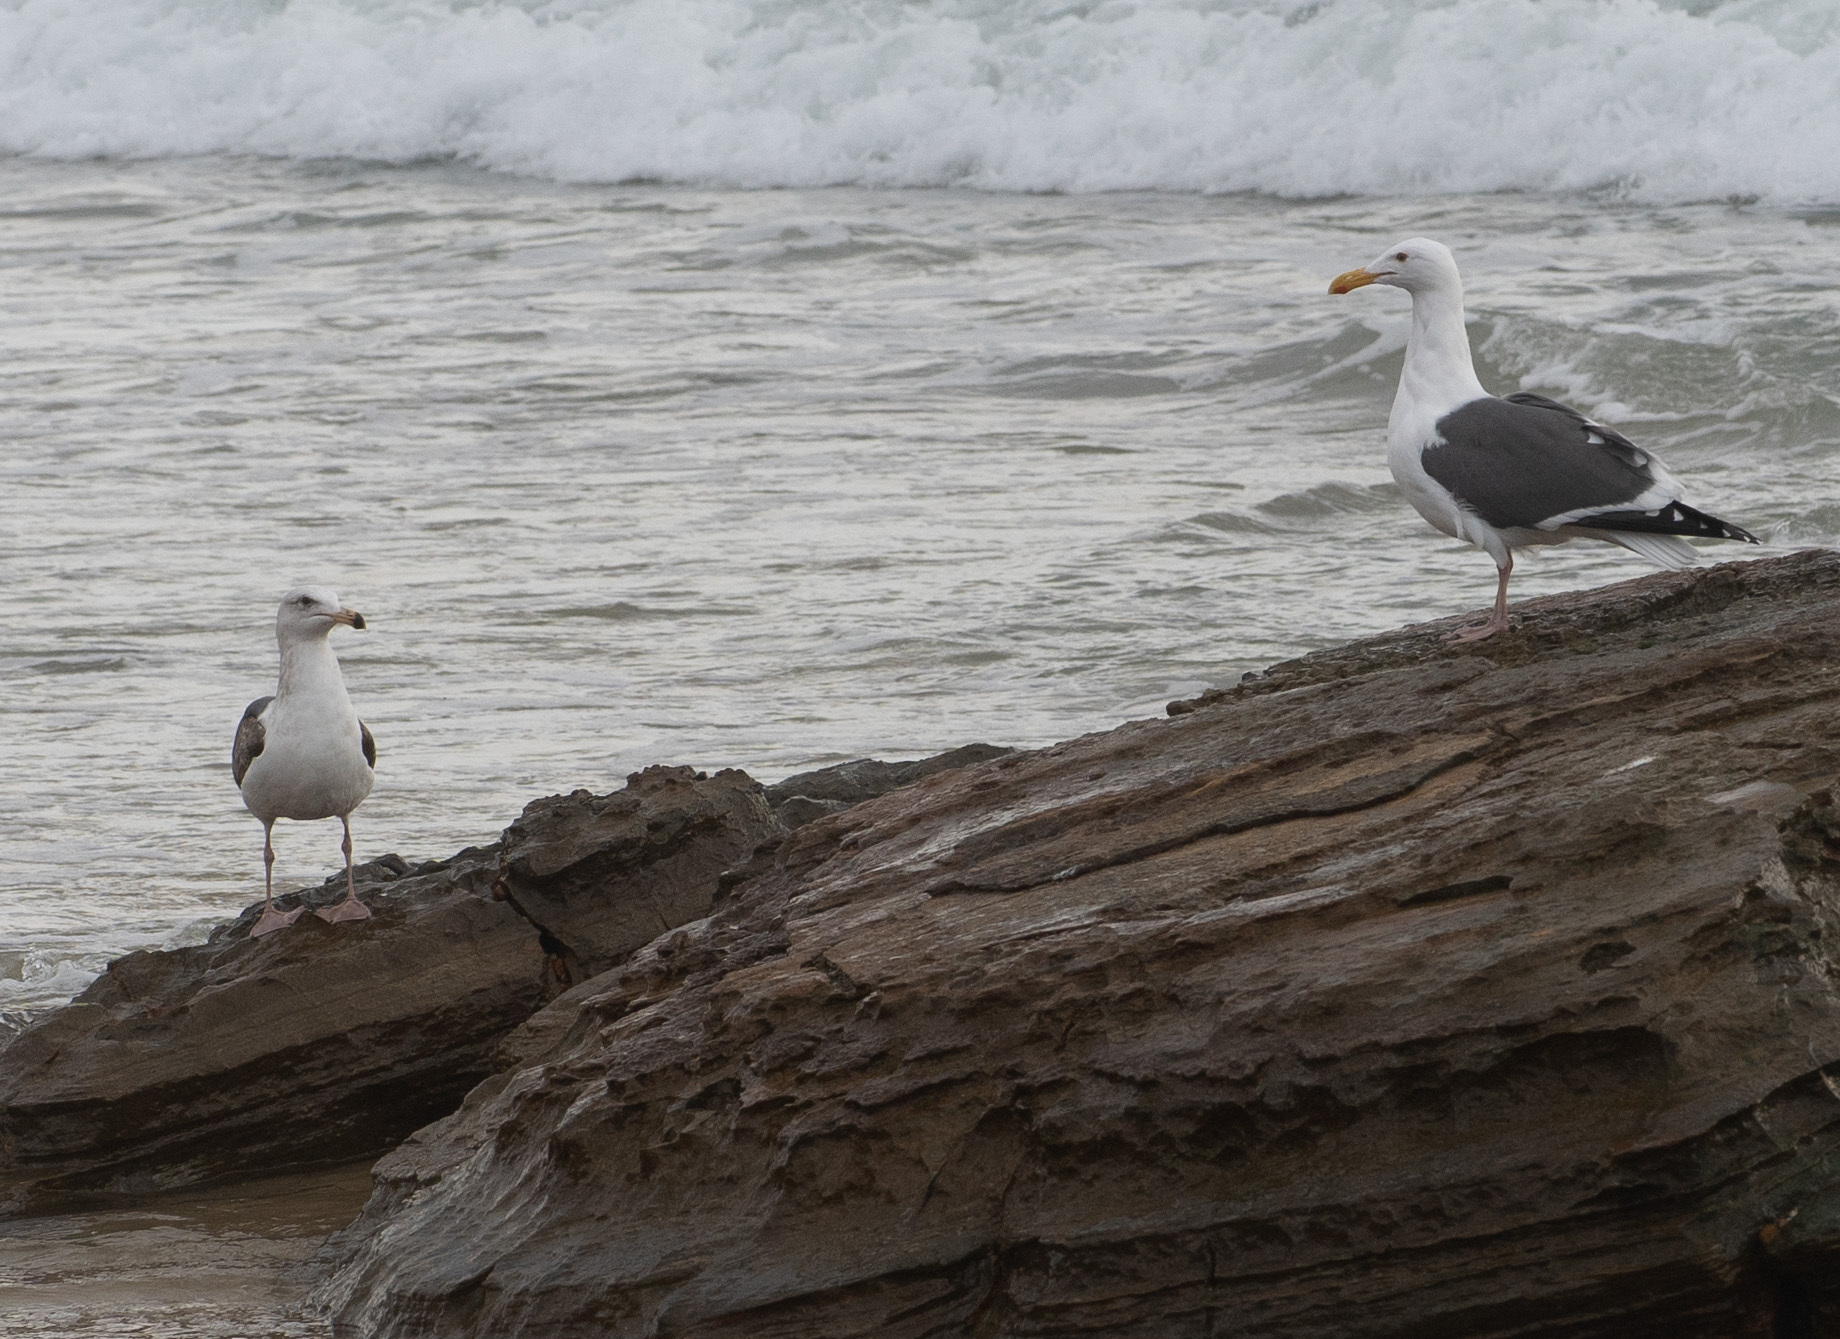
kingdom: Animalia
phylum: Chordata
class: Aves
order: Charadriiformes
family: Laridae
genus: Larus
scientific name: Larus occidentalis
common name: Western gull
